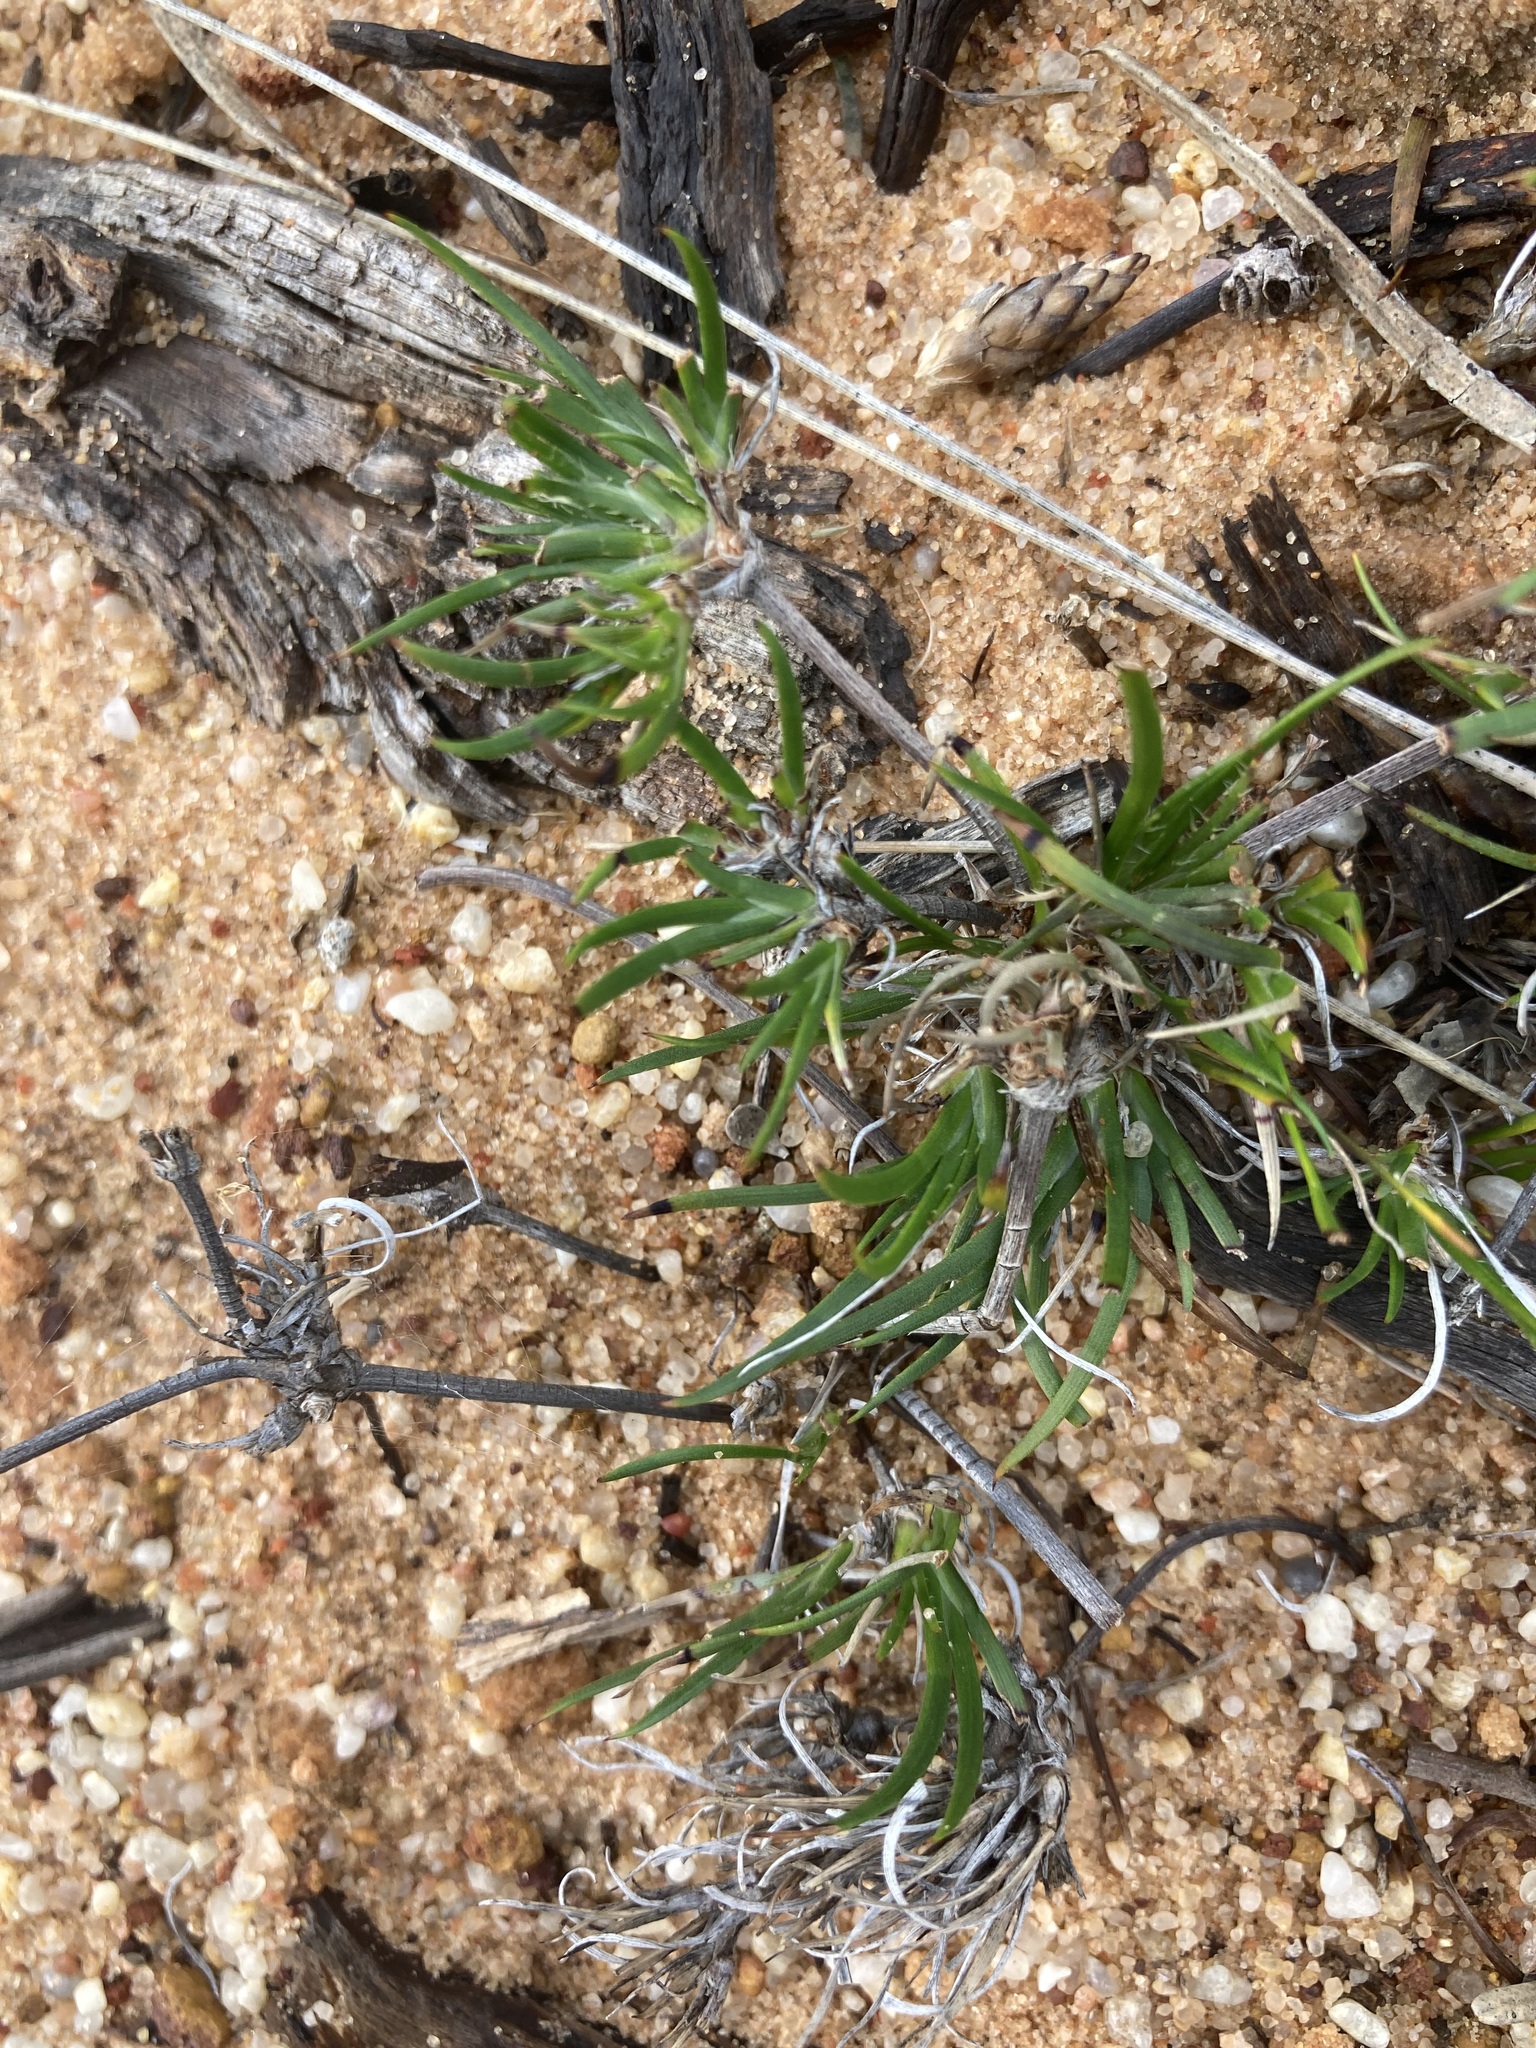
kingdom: Plantae
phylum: Tracheophyta
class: Liliopsida
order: Commelinales
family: Haemodoraceae
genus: Conostylis
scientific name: Conostylis prolifera
